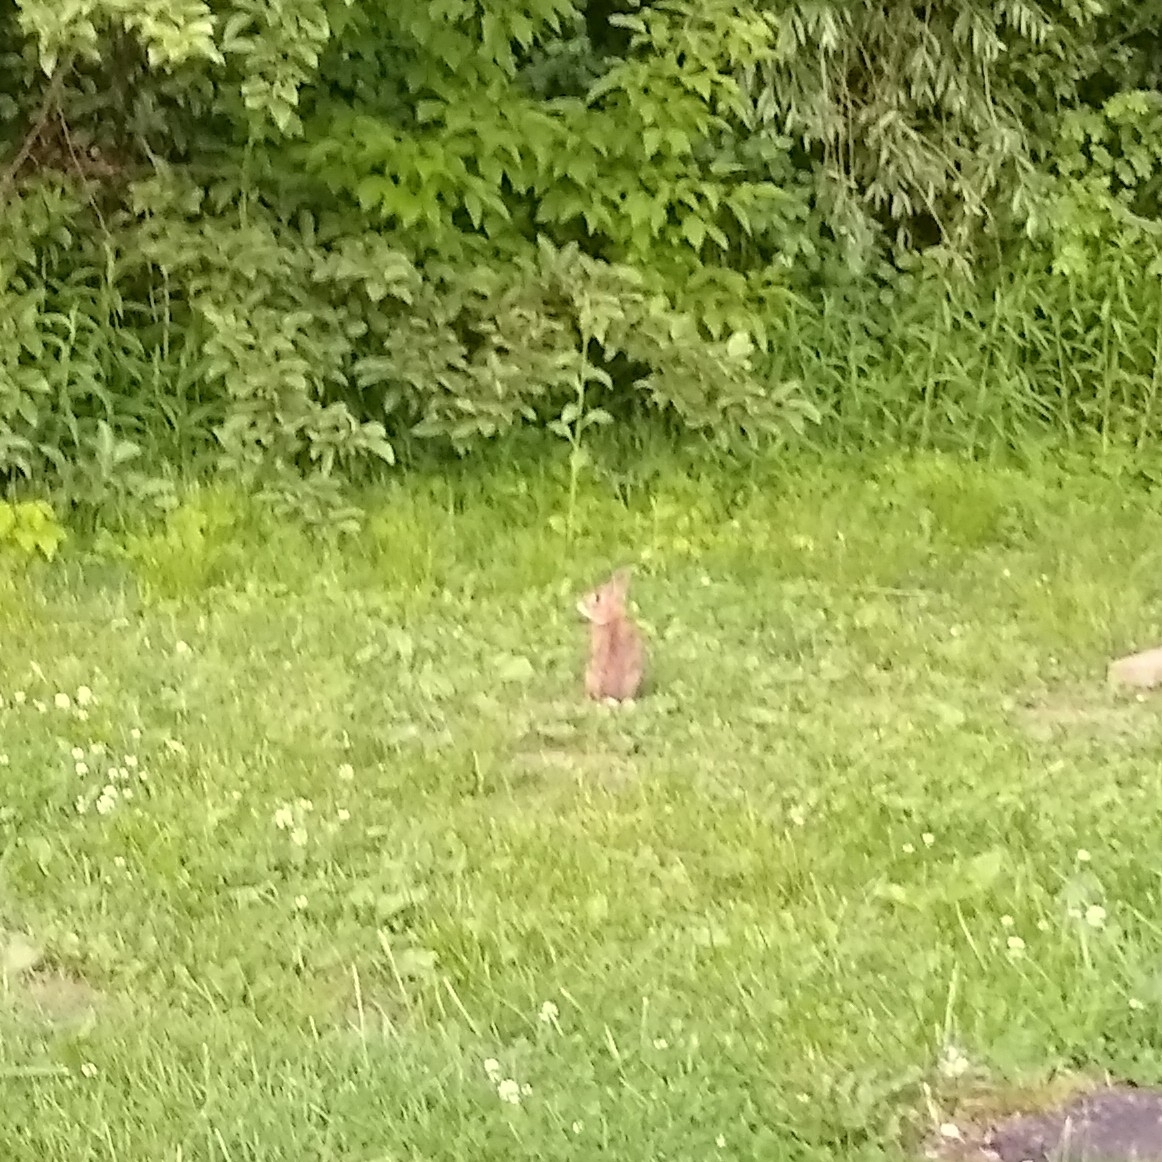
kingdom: Animalia
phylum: Chordata
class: Mammalia
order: Lagomorpha
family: Leporidae
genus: Sylvilagus
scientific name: Sylvilagus floridanus
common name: Eastern cottontail
